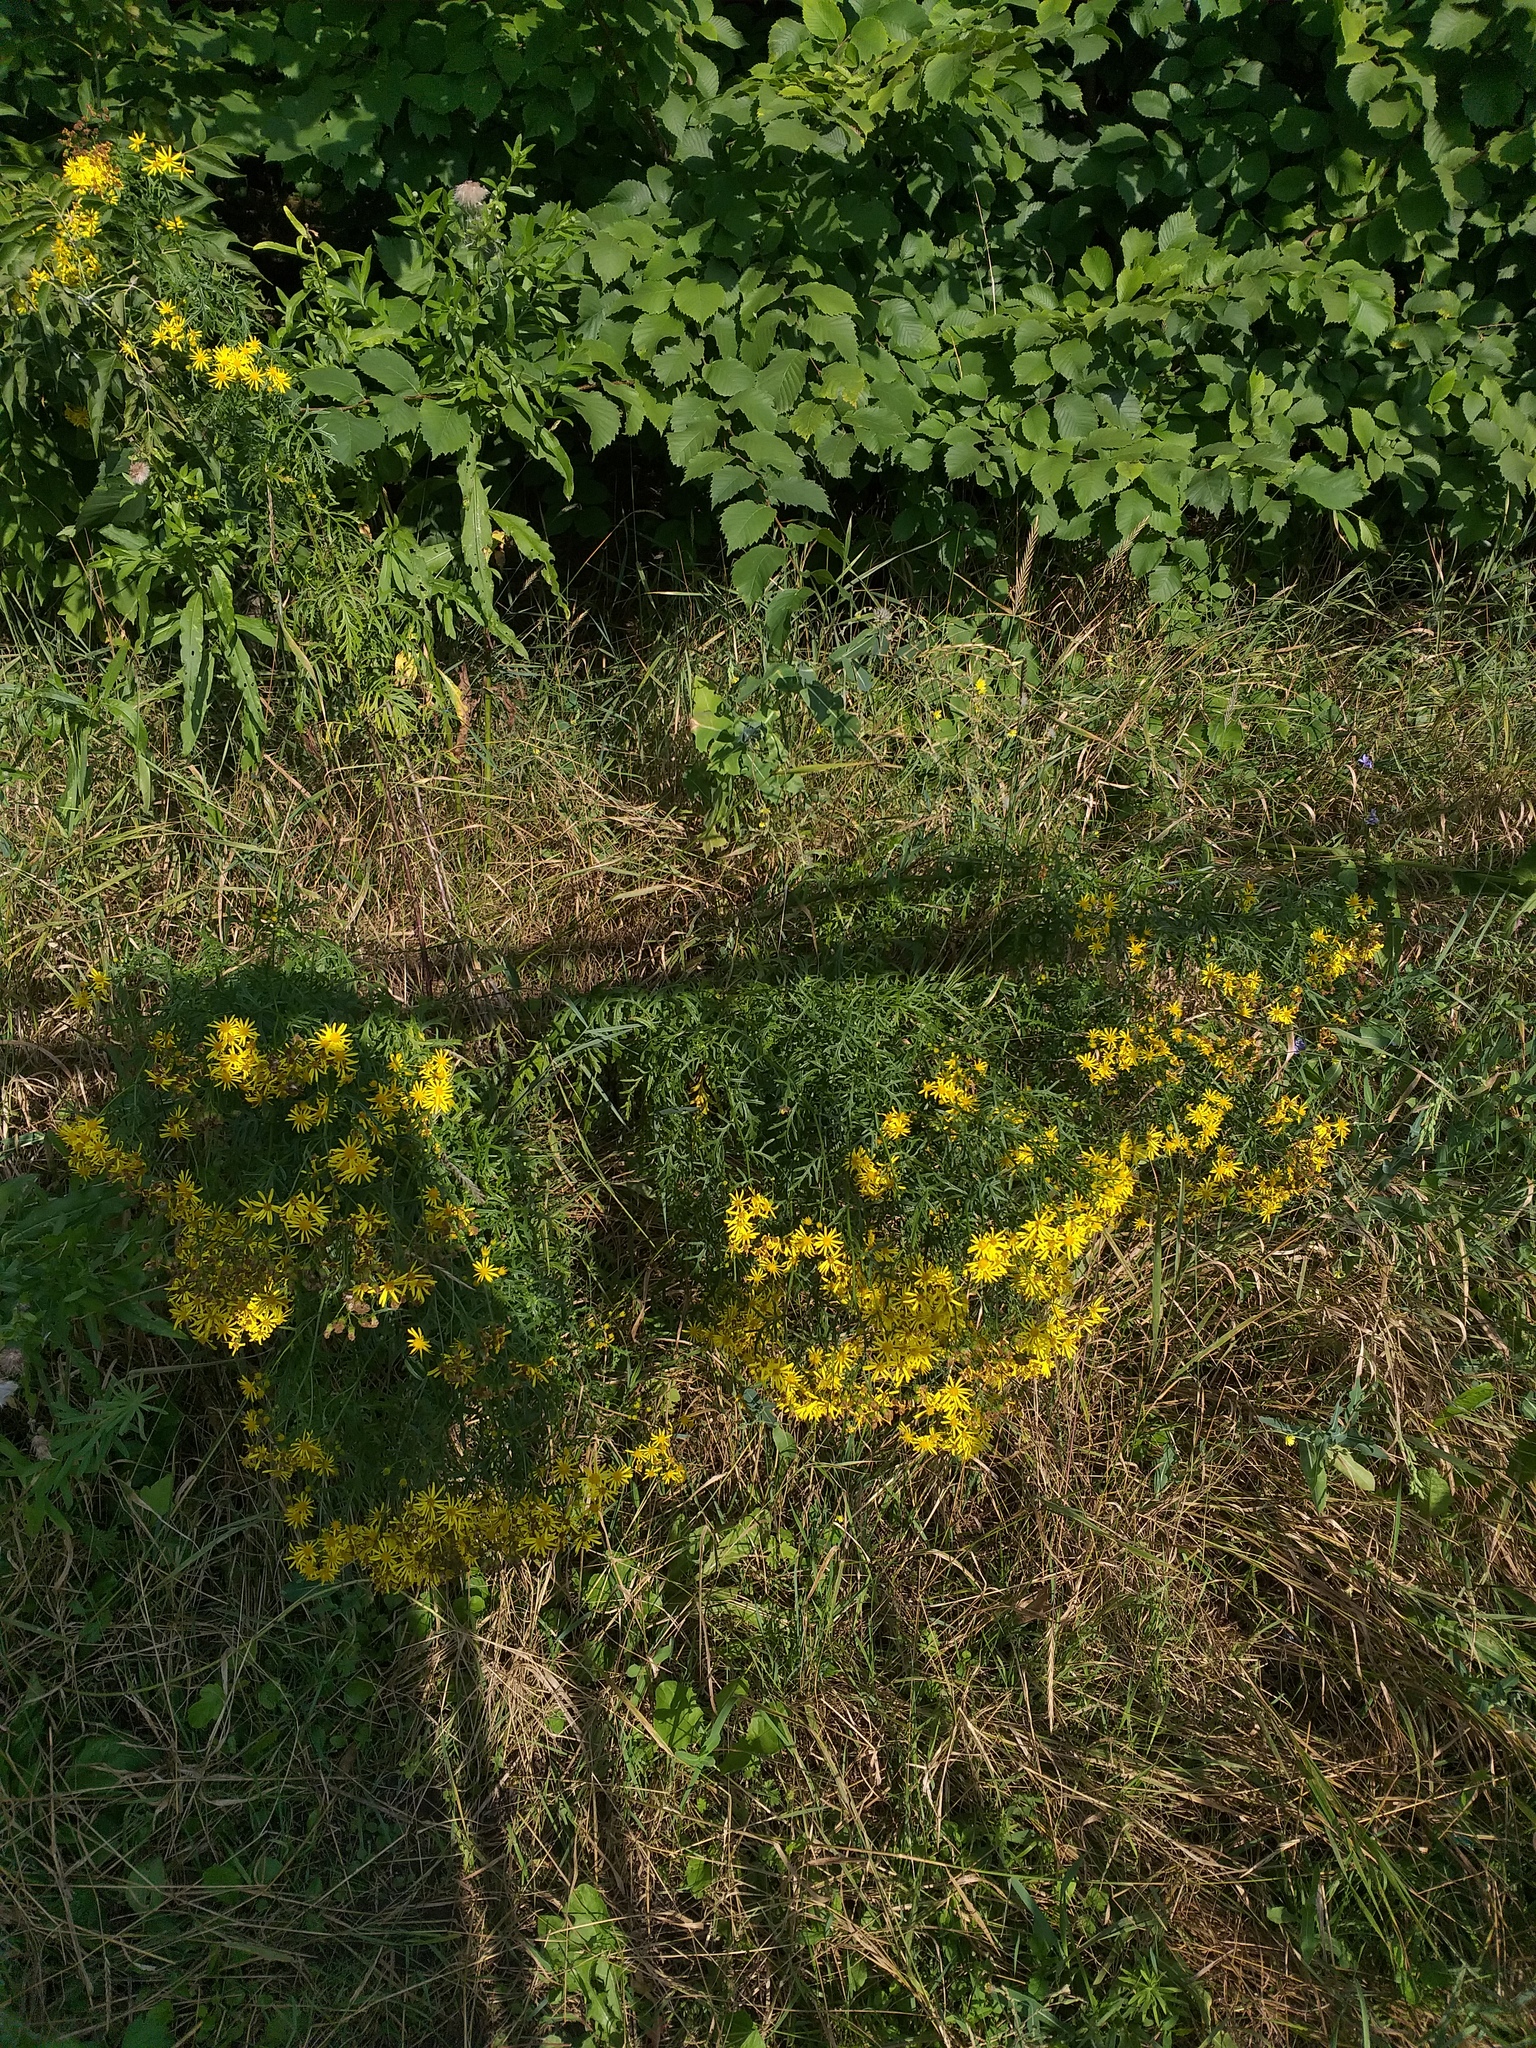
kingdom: Plantae
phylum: Tracheophyta
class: Magnoliopsida
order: Asterales
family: Asteraceae
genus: Jacobaea
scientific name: Jacobaea erucifolia
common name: Hoary ragwort
